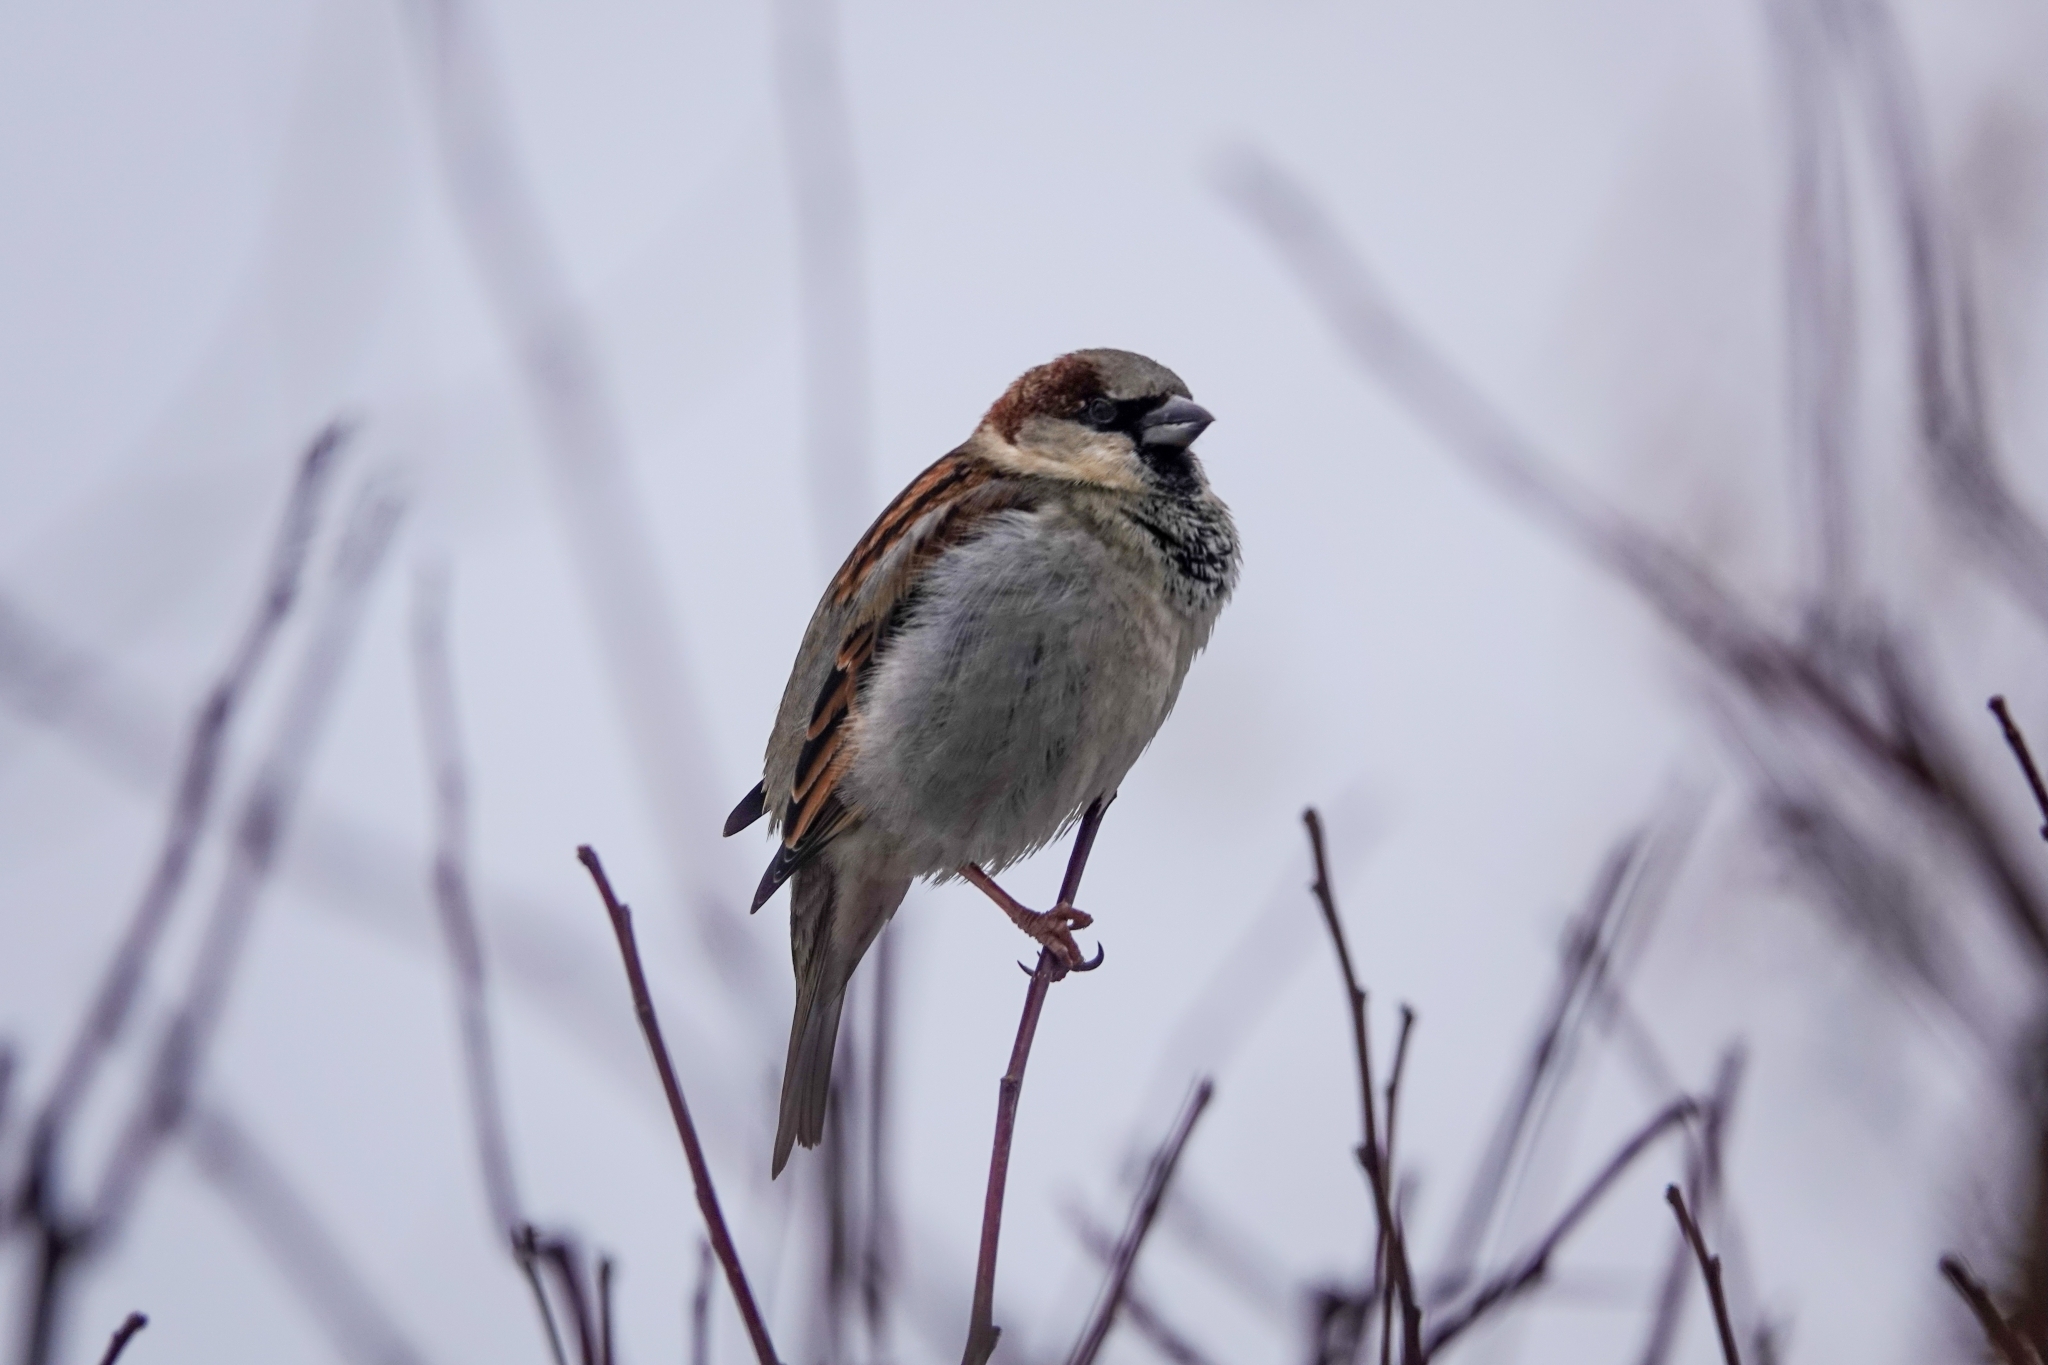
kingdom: Animalia
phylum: Chordata
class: Aves
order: Passeriformes
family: Passeridae
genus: Passer
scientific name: Passer domesticus
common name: House sparrow
